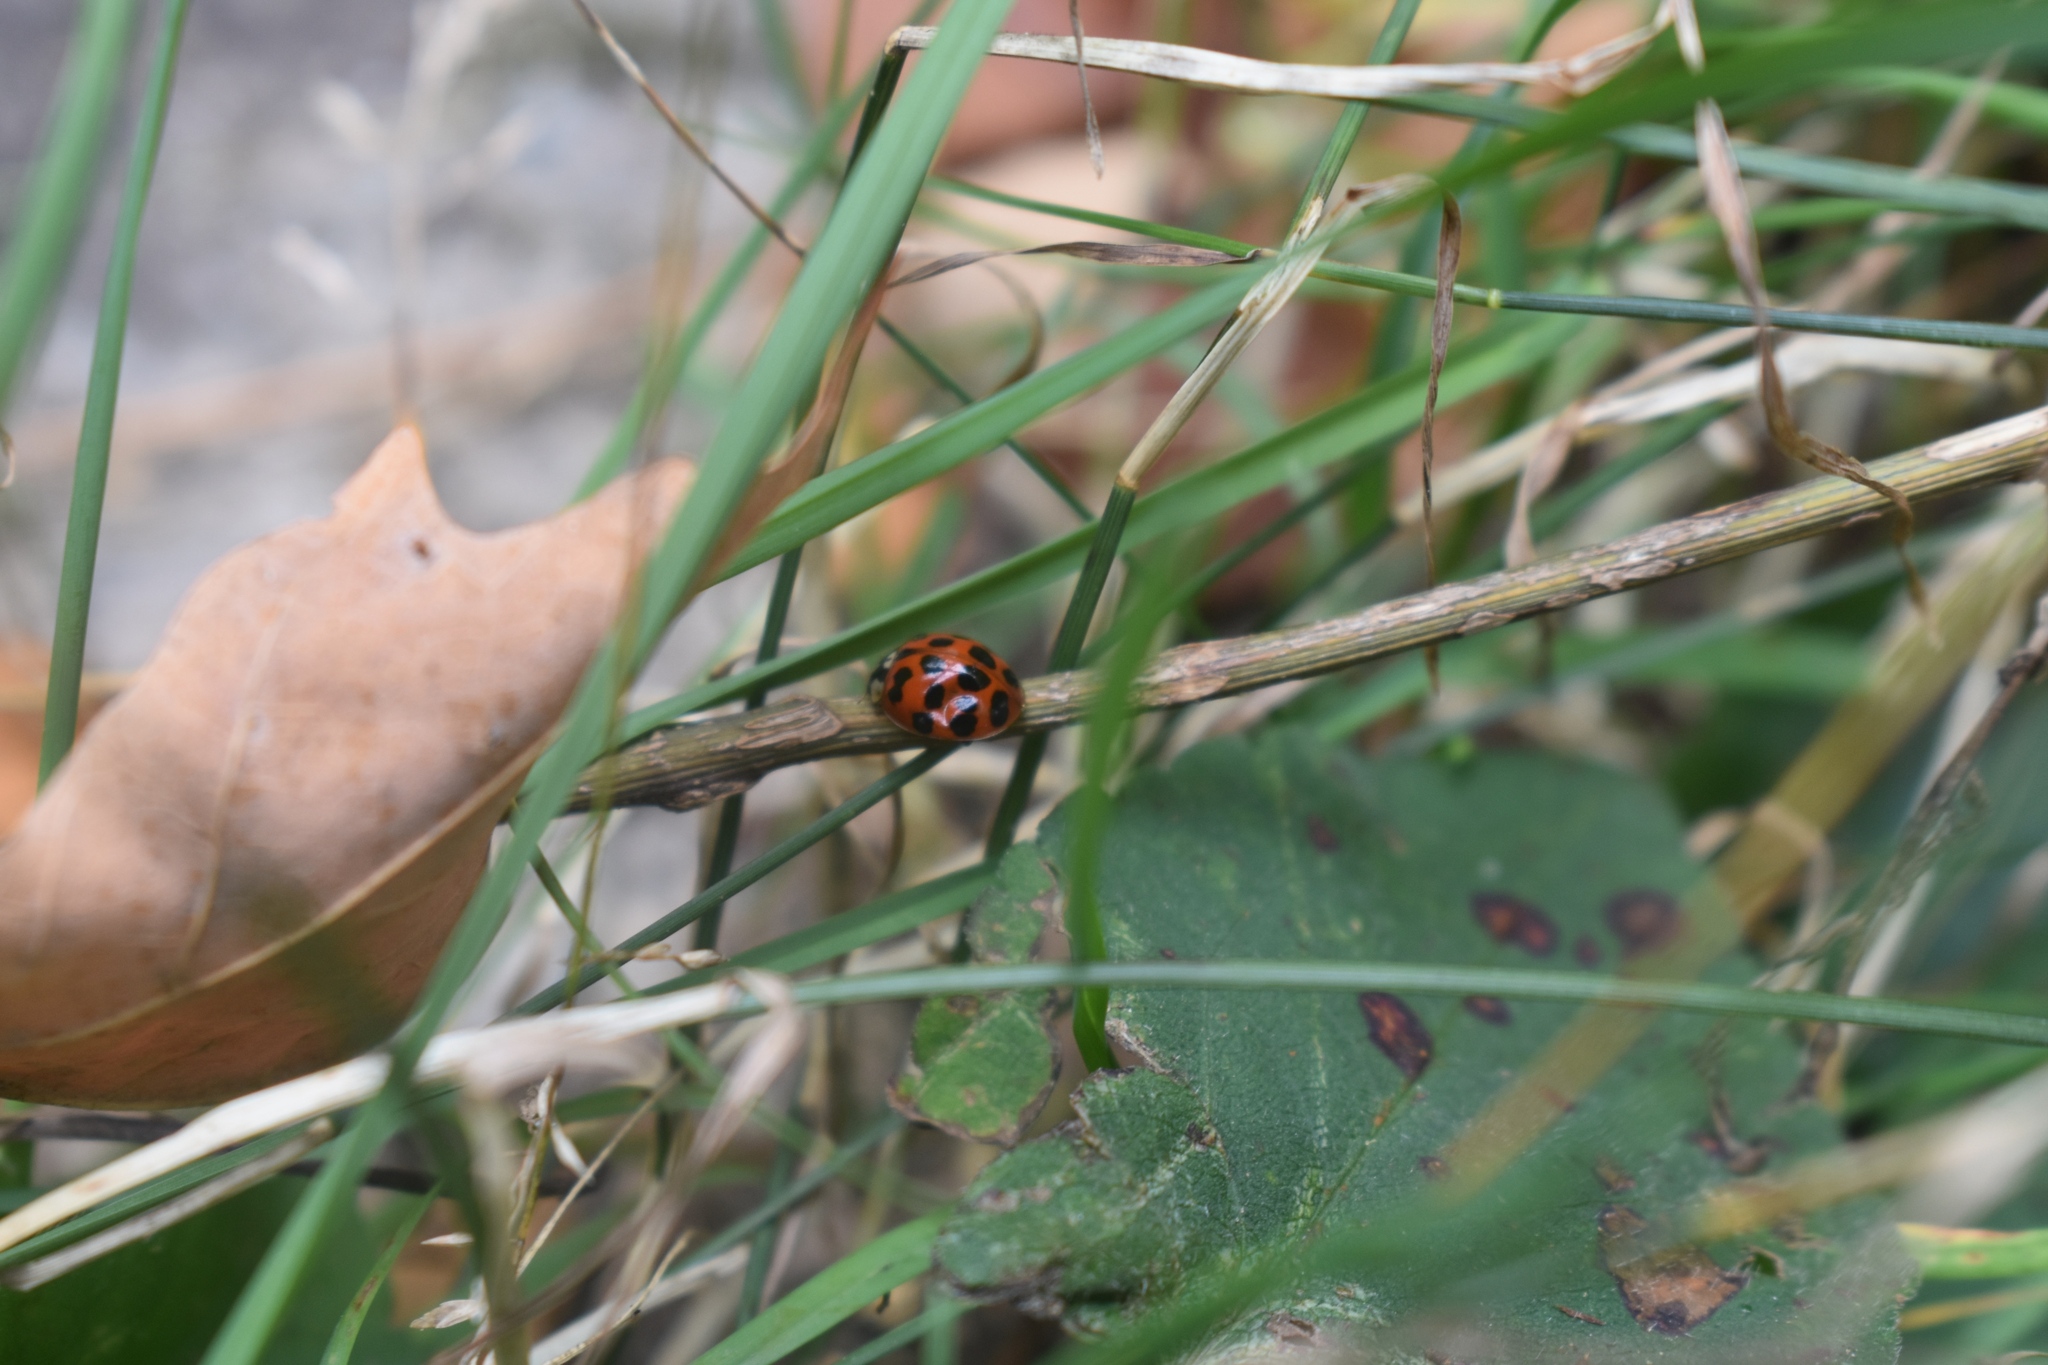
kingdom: Animalia
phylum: Arthropoda
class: Insecta
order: Coleoptera
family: Coccinellidae
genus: Harmonia
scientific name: Harmonia axyridis
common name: Harlequin ladybird
